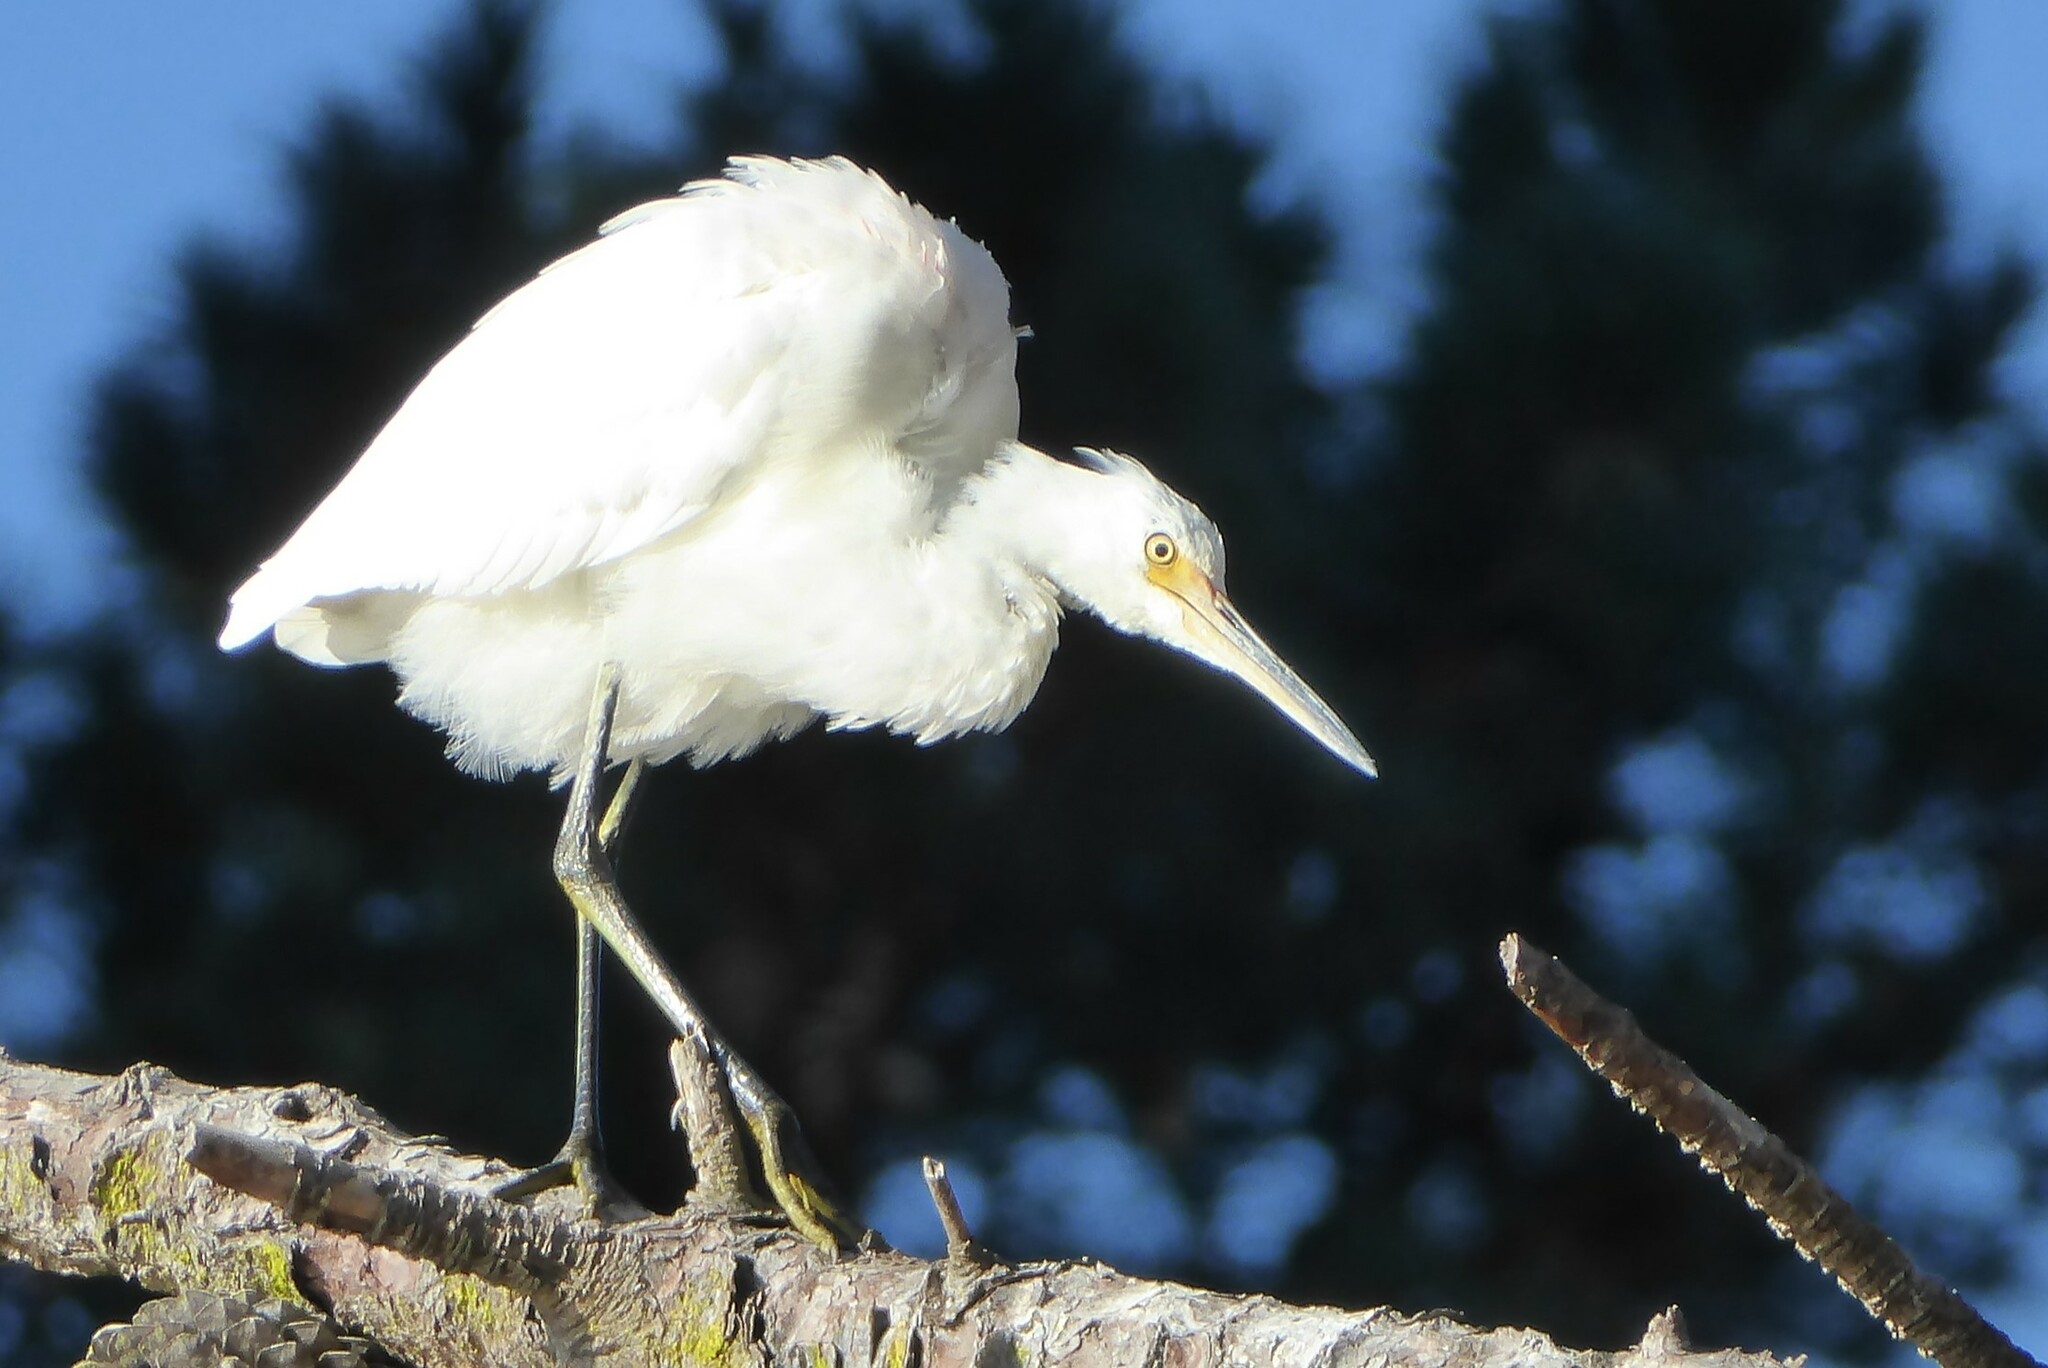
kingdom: Animalia
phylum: Chordata
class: Aves
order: Pelecaniformes
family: Ardeidae
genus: Egretta
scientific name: Egretta garzetta
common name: Little egret
